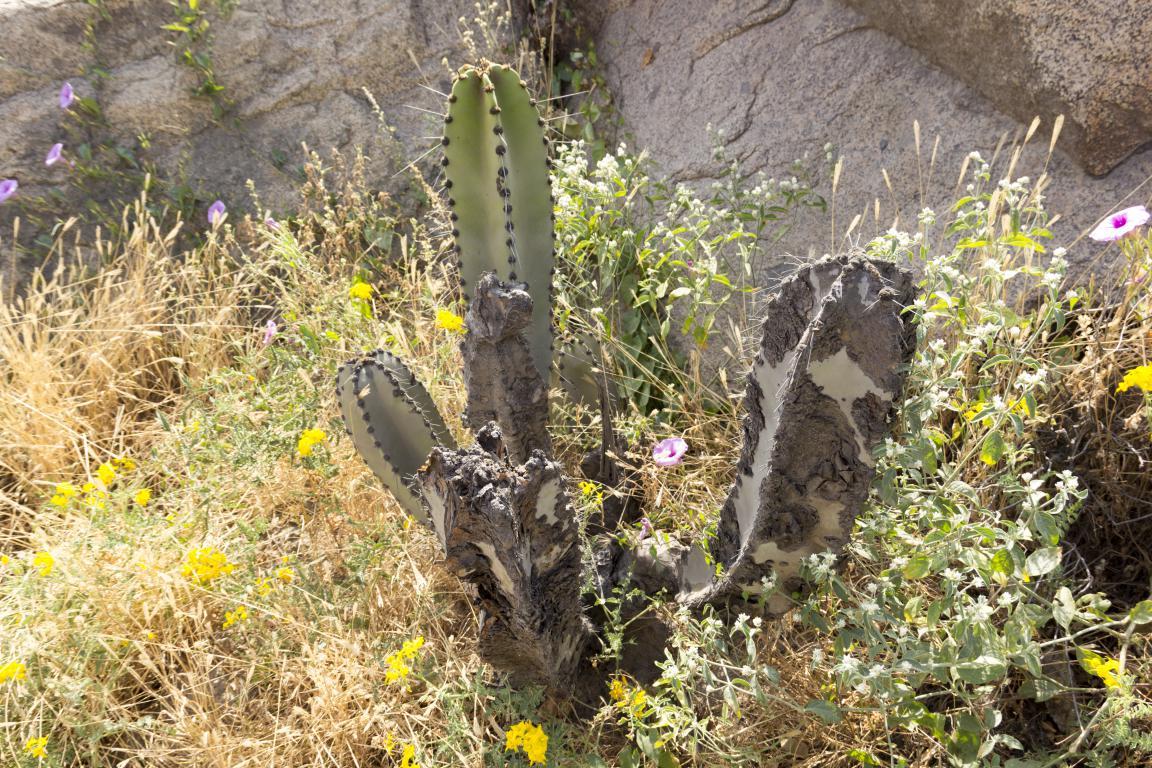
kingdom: Plantae
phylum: Tracheophyta
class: Magnoliopsida
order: Caryophyllales
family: Cactaceae
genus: Neoraimondia
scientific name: Neoraimondia arequipensis
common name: Big-bed-of-straw
